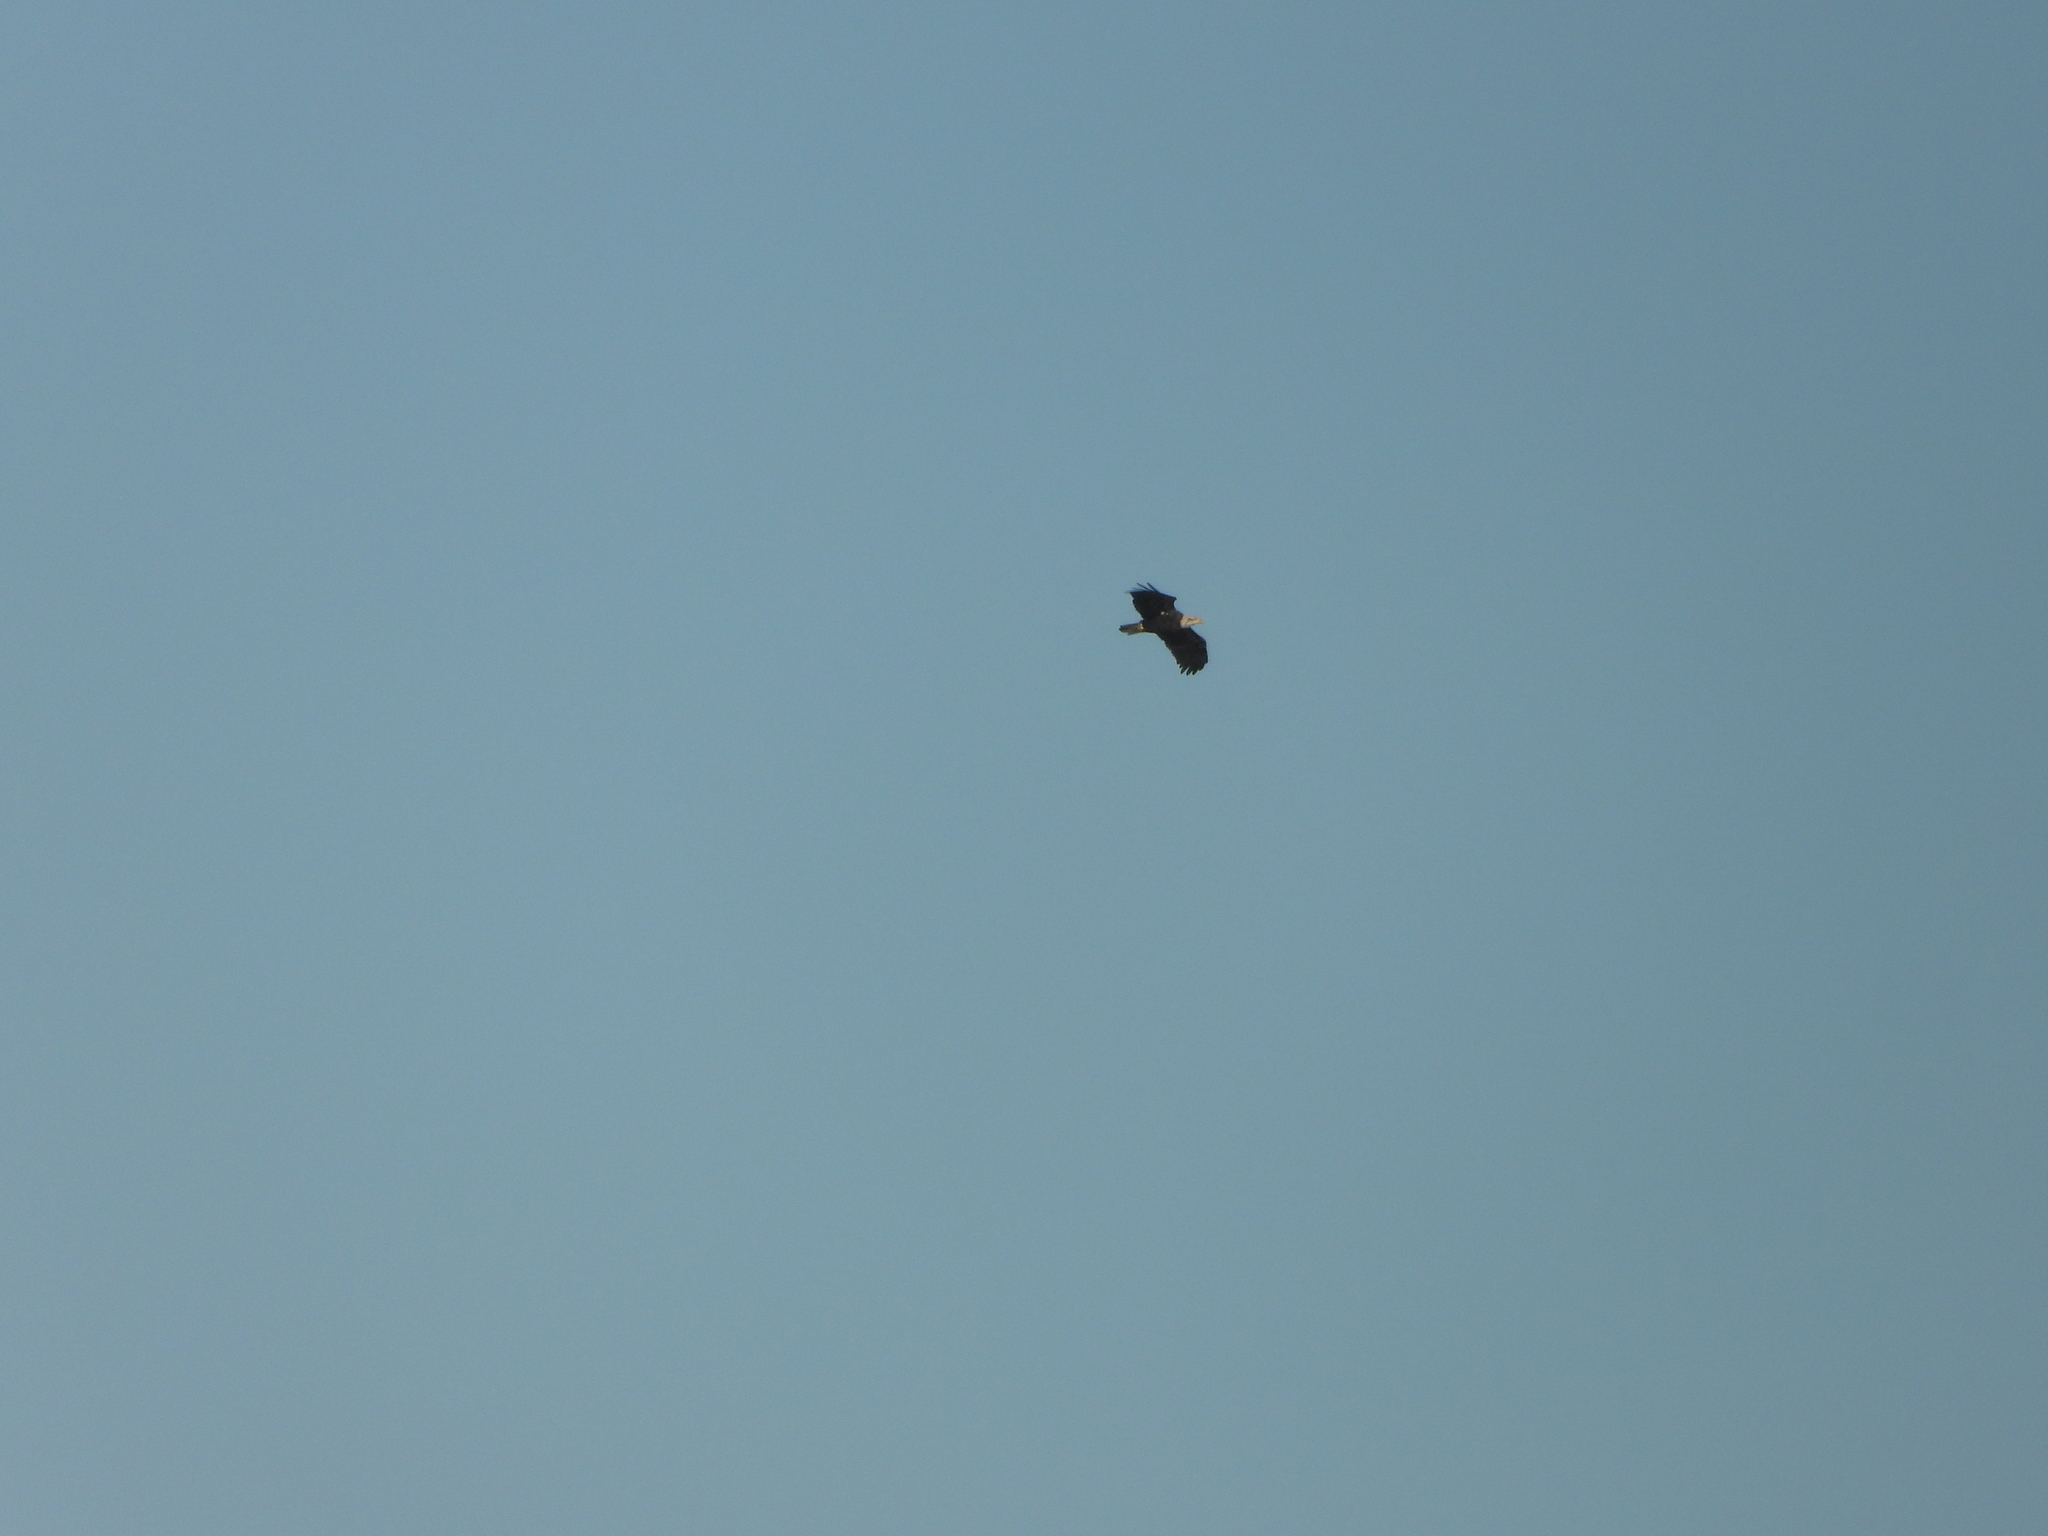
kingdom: Animalia
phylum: Chordata
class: Aves
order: Accipitriformes
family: Accipitridae
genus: Haliaeetus
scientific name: Haliaeetus leucocephalus
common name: Bald eagle
